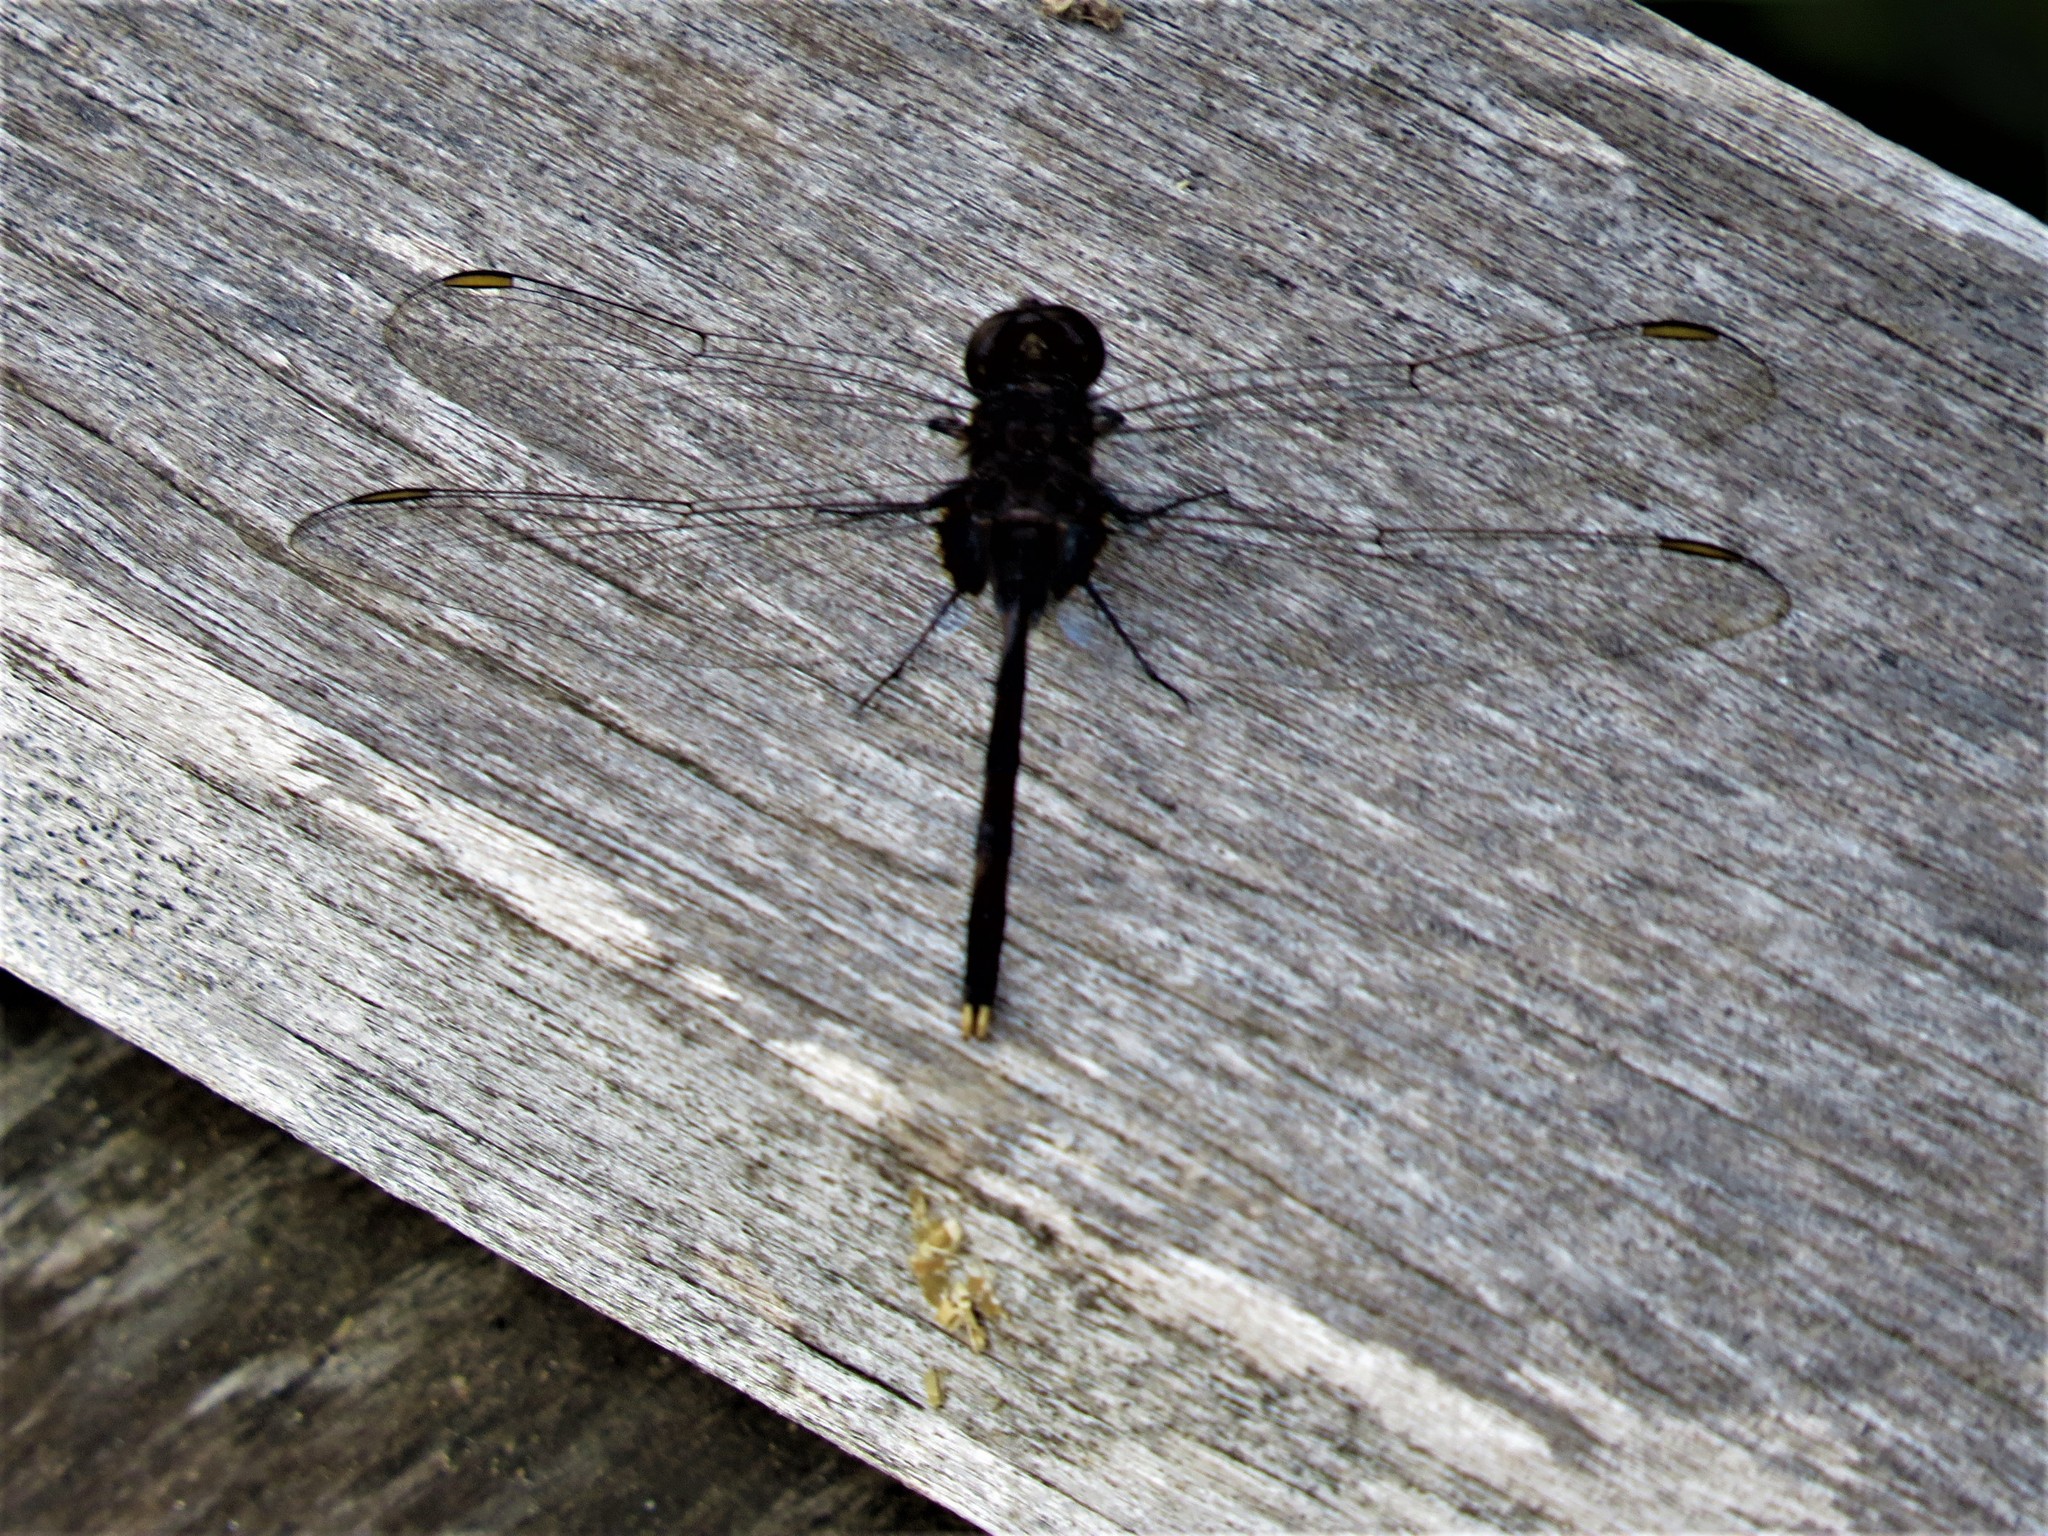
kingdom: Animalia
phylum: Arthropoda
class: Insecta
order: Odonata
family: Libellulidae
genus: Erythemis
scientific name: Erythemis plebeja
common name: Pin-tailed pondhawk
